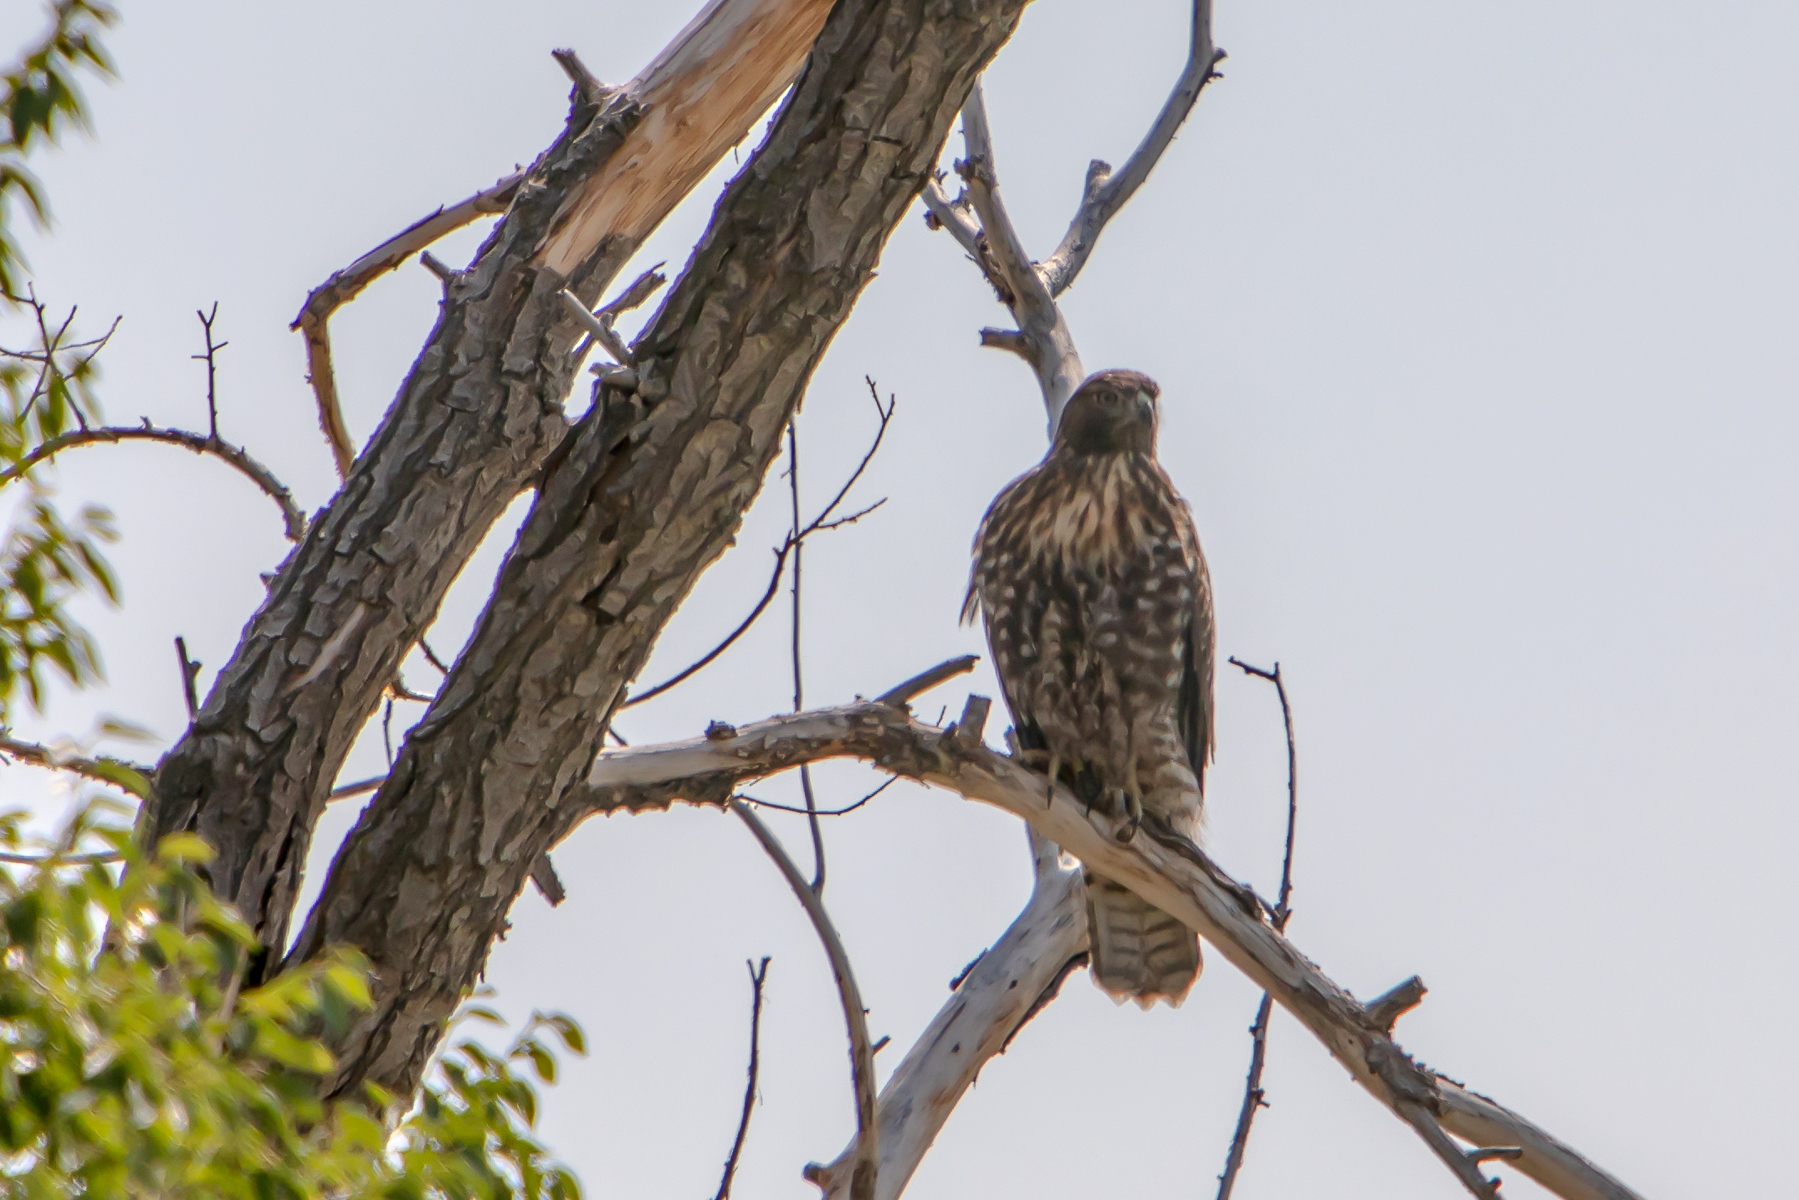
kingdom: Animalia
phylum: Chordata
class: Aves
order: Accipitriformes
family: Accipitridae
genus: Buteo
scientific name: Buteo jamaicensis
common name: Red-tailed hawk
